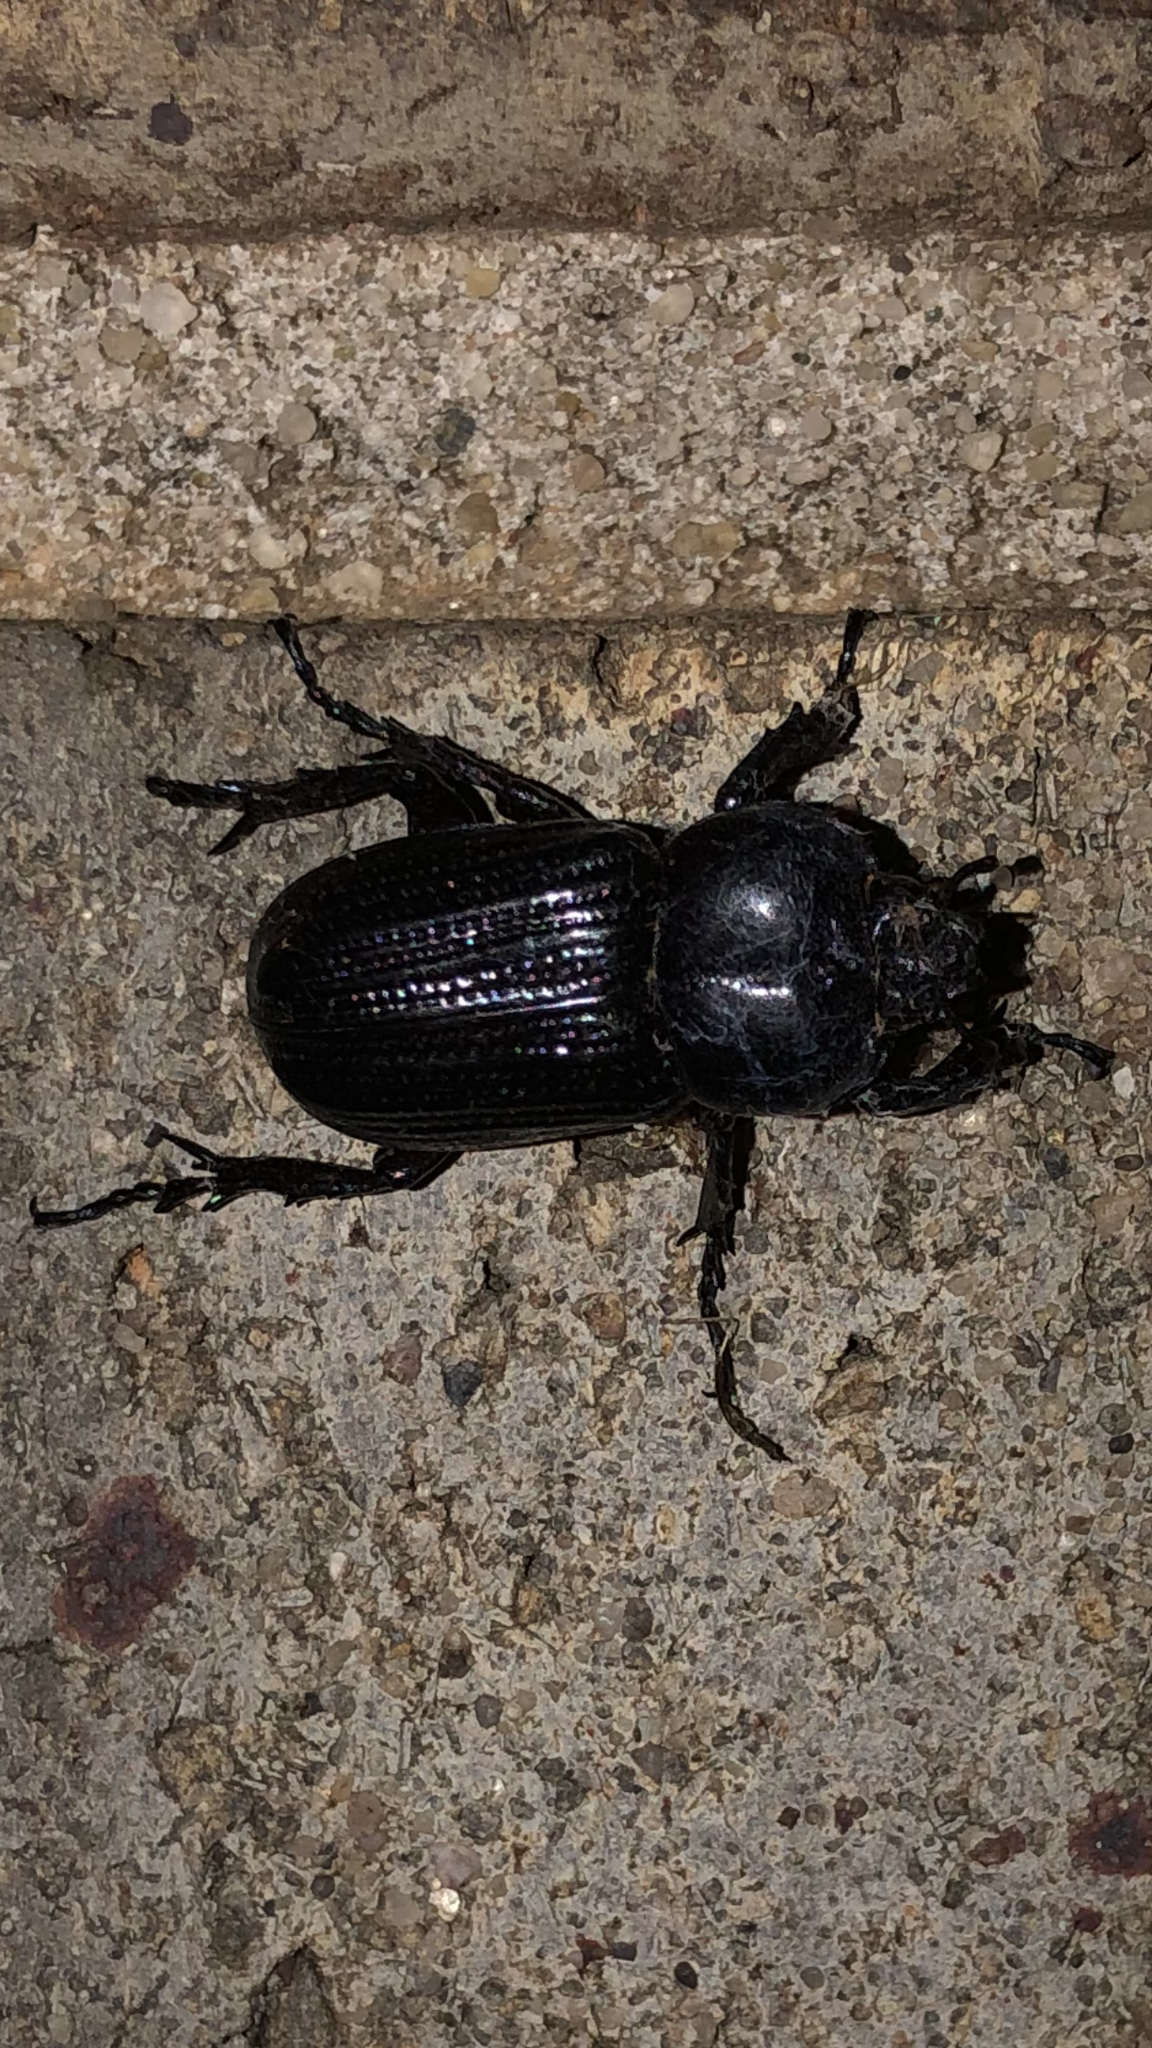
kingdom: Animalia
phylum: Arthropoda
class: Insecta
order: Coleoptera
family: Scarabaeidae
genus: Phileurus
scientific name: Phileurus valgus
